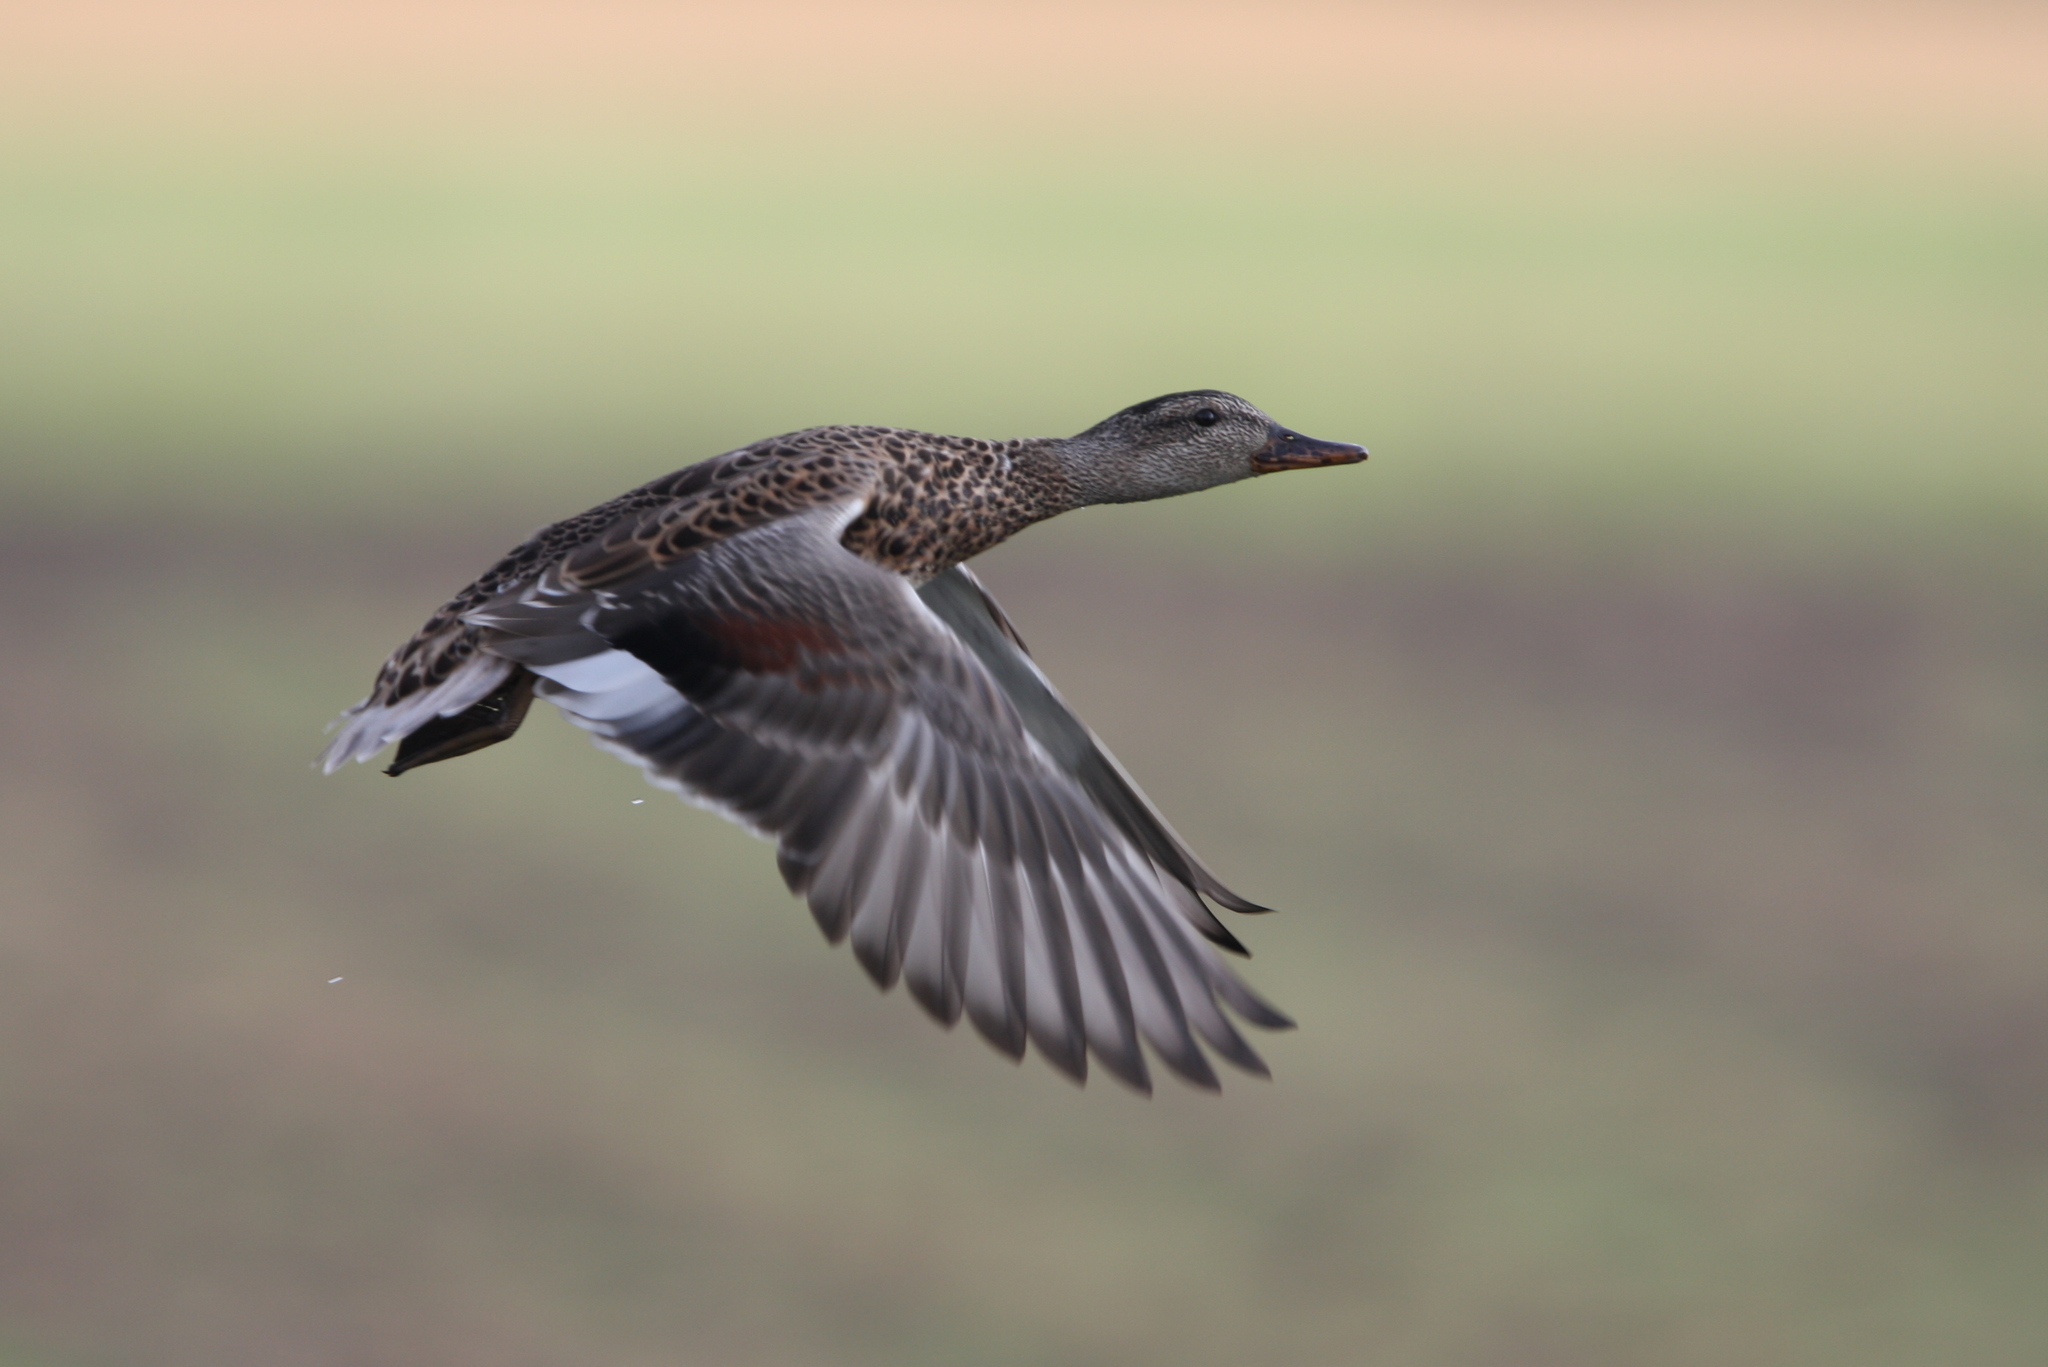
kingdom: Animalia
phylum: Chordata
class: Aves
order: Anseriformes
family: Anatidae
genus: Mareca
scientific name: Mareca strepera
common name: Gadwall
